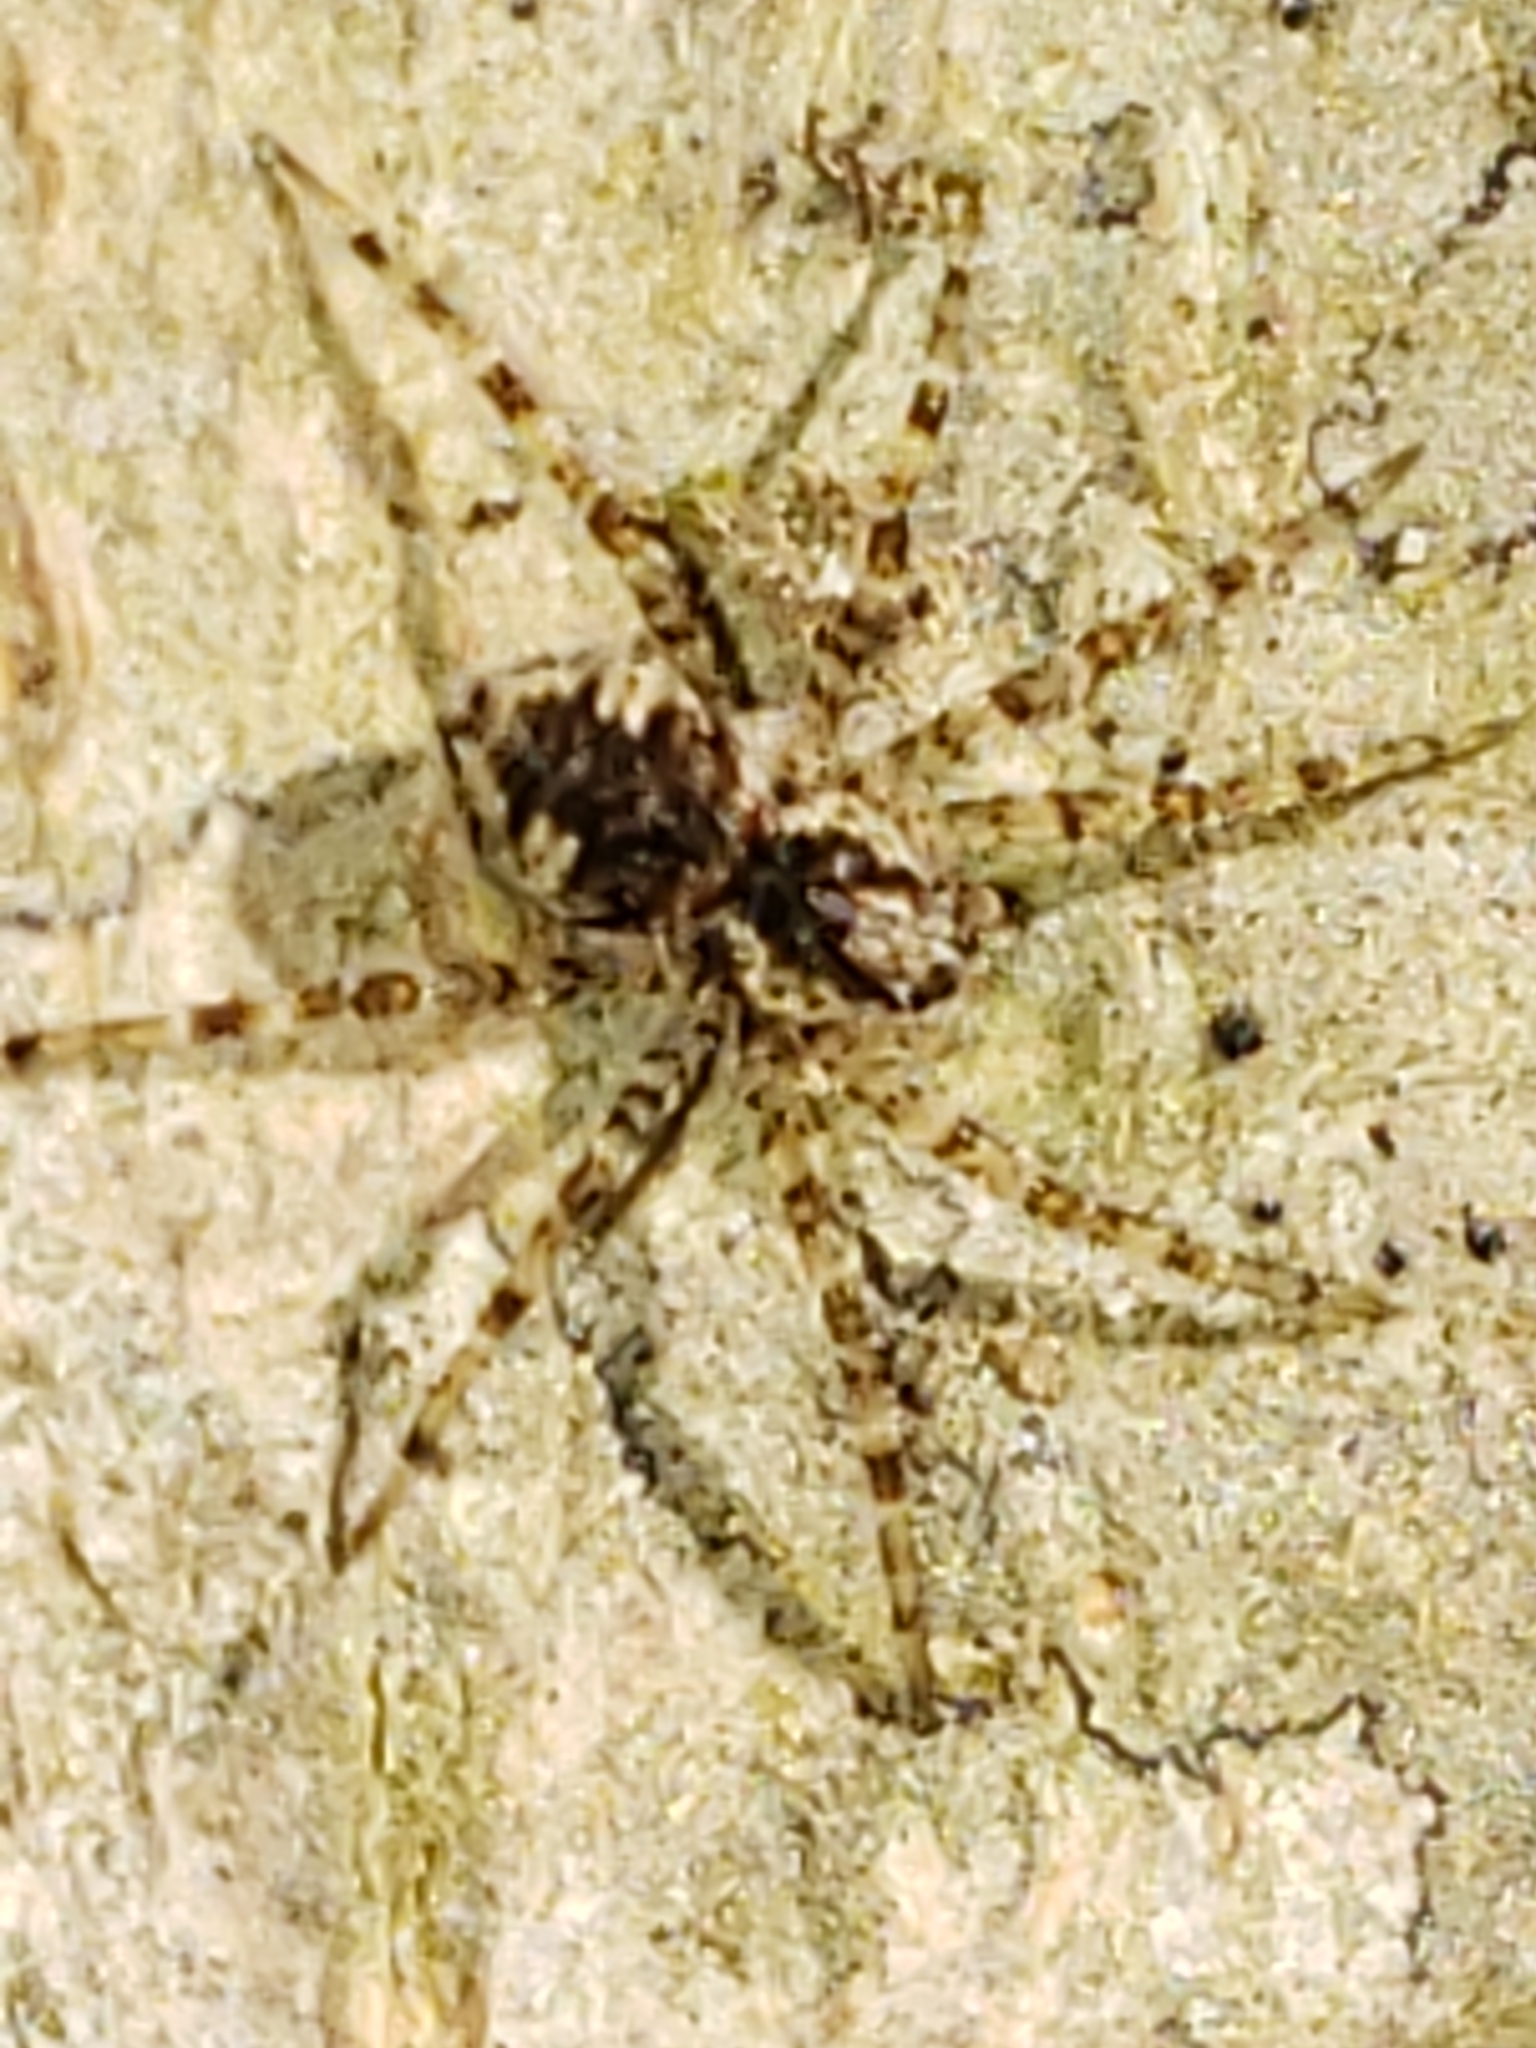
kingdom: Animalia
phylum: Arthropoda
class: Arachnida
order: Araneae
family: Pisauridae
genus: Dolomedes
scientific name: Dolomedes albineus
